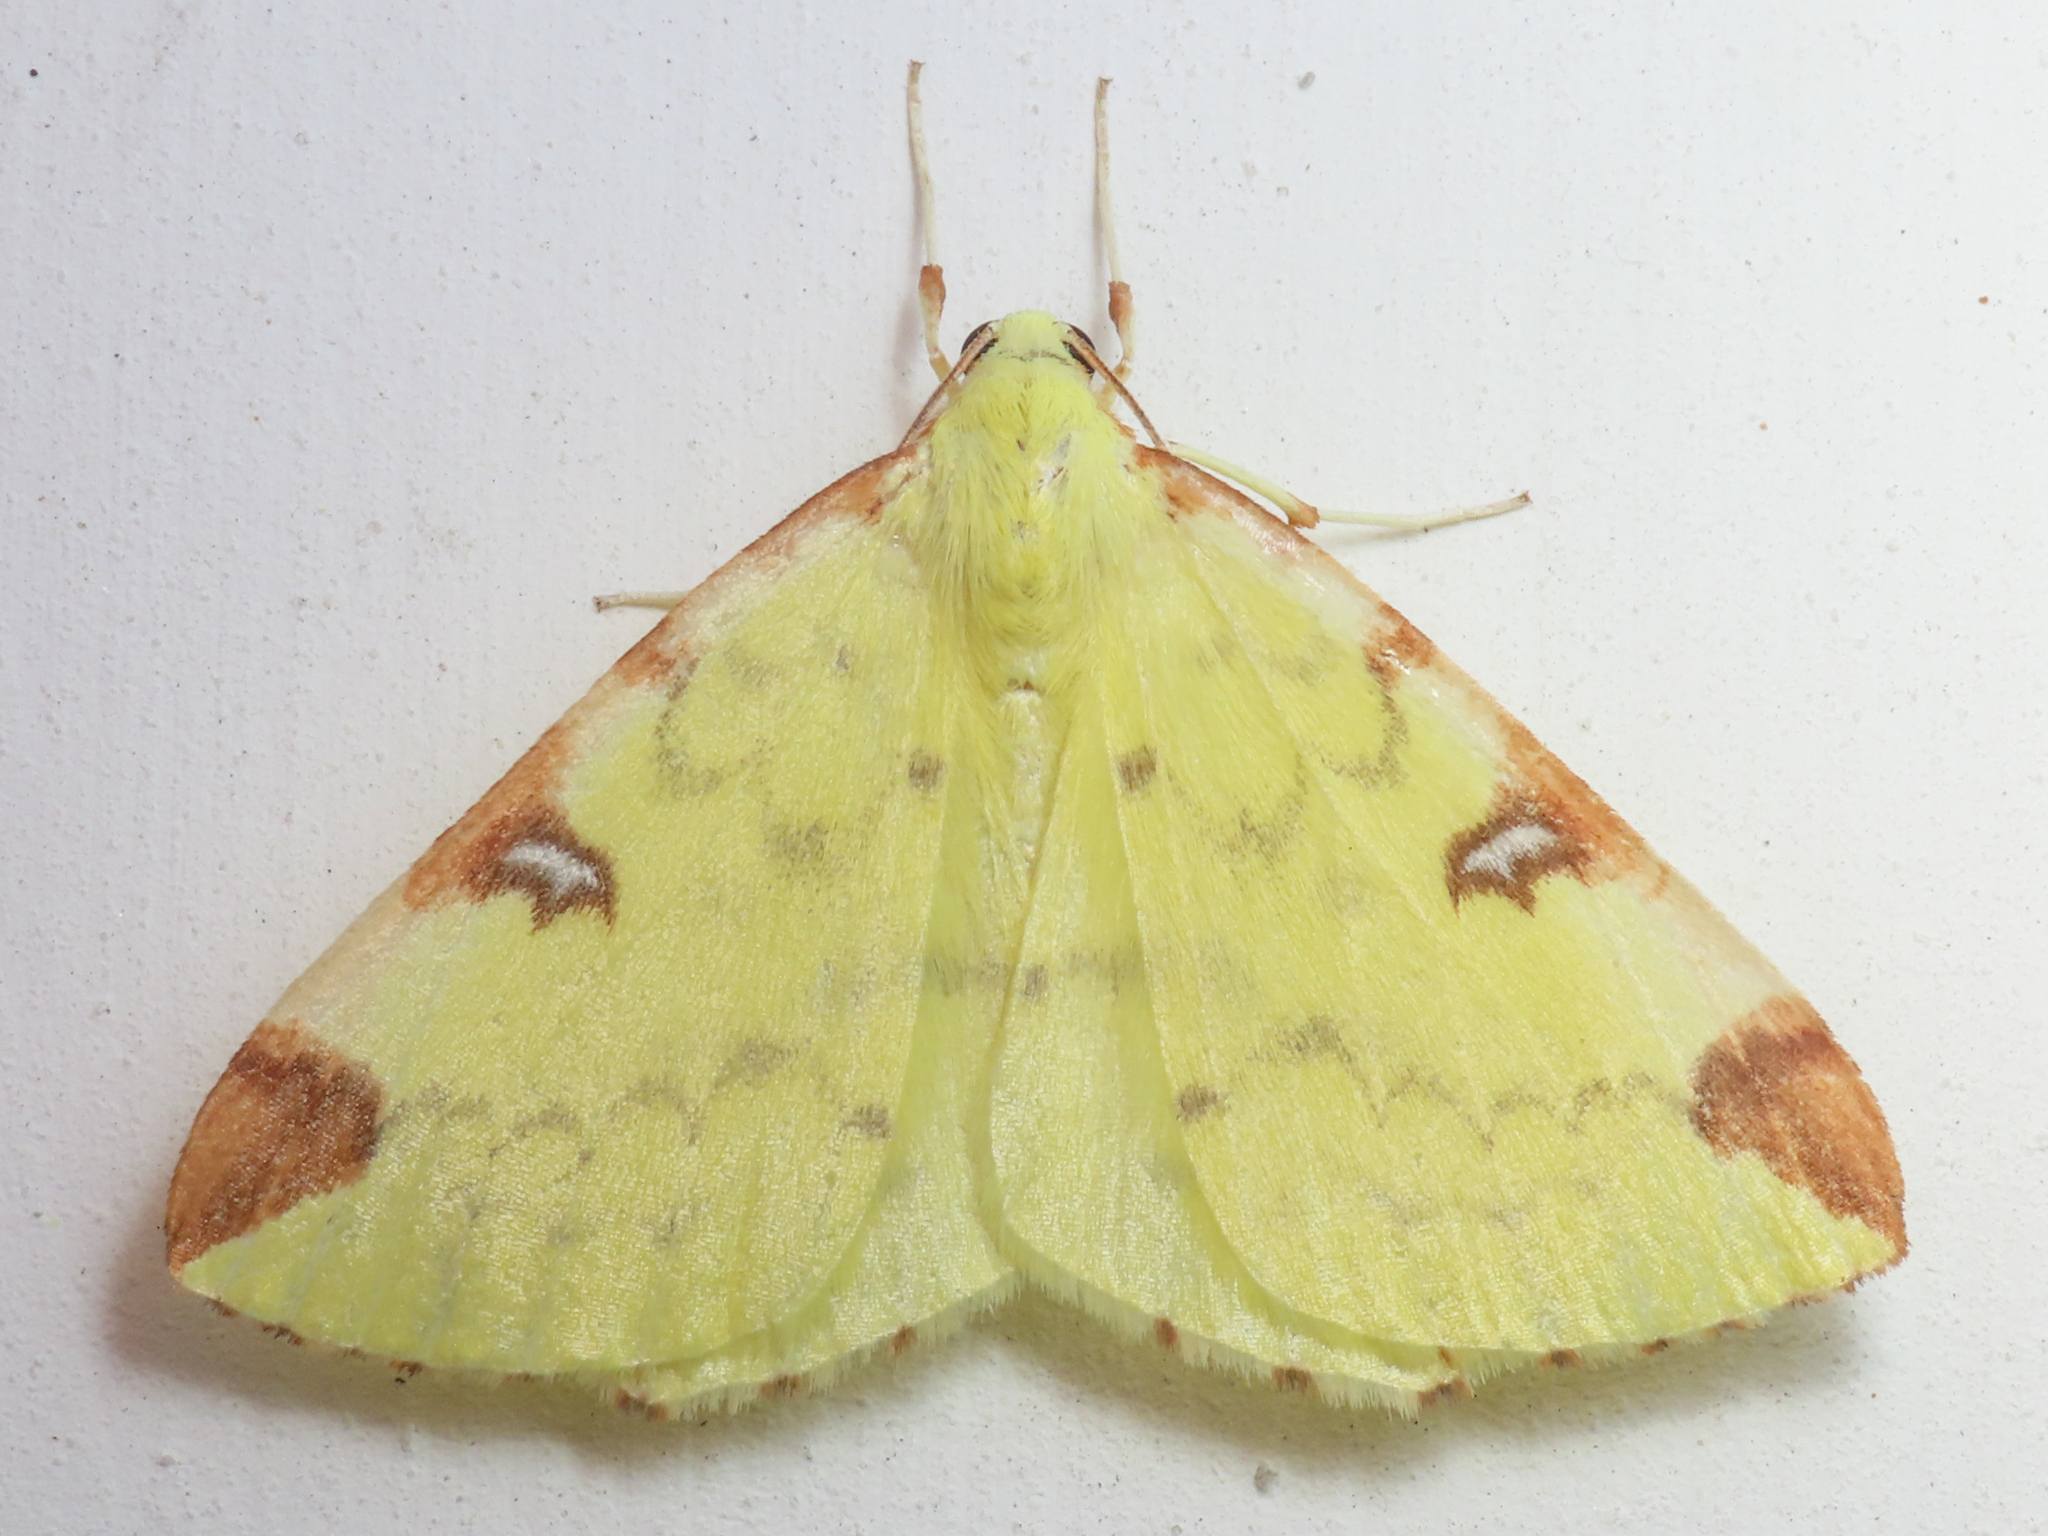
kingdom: Animalia
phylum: Arthropoda
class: Insecta
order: Lepidoptera
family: Geometridae
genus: Opisthograptis
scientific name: Opisthograptis luteolata
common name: Brimstone moth
